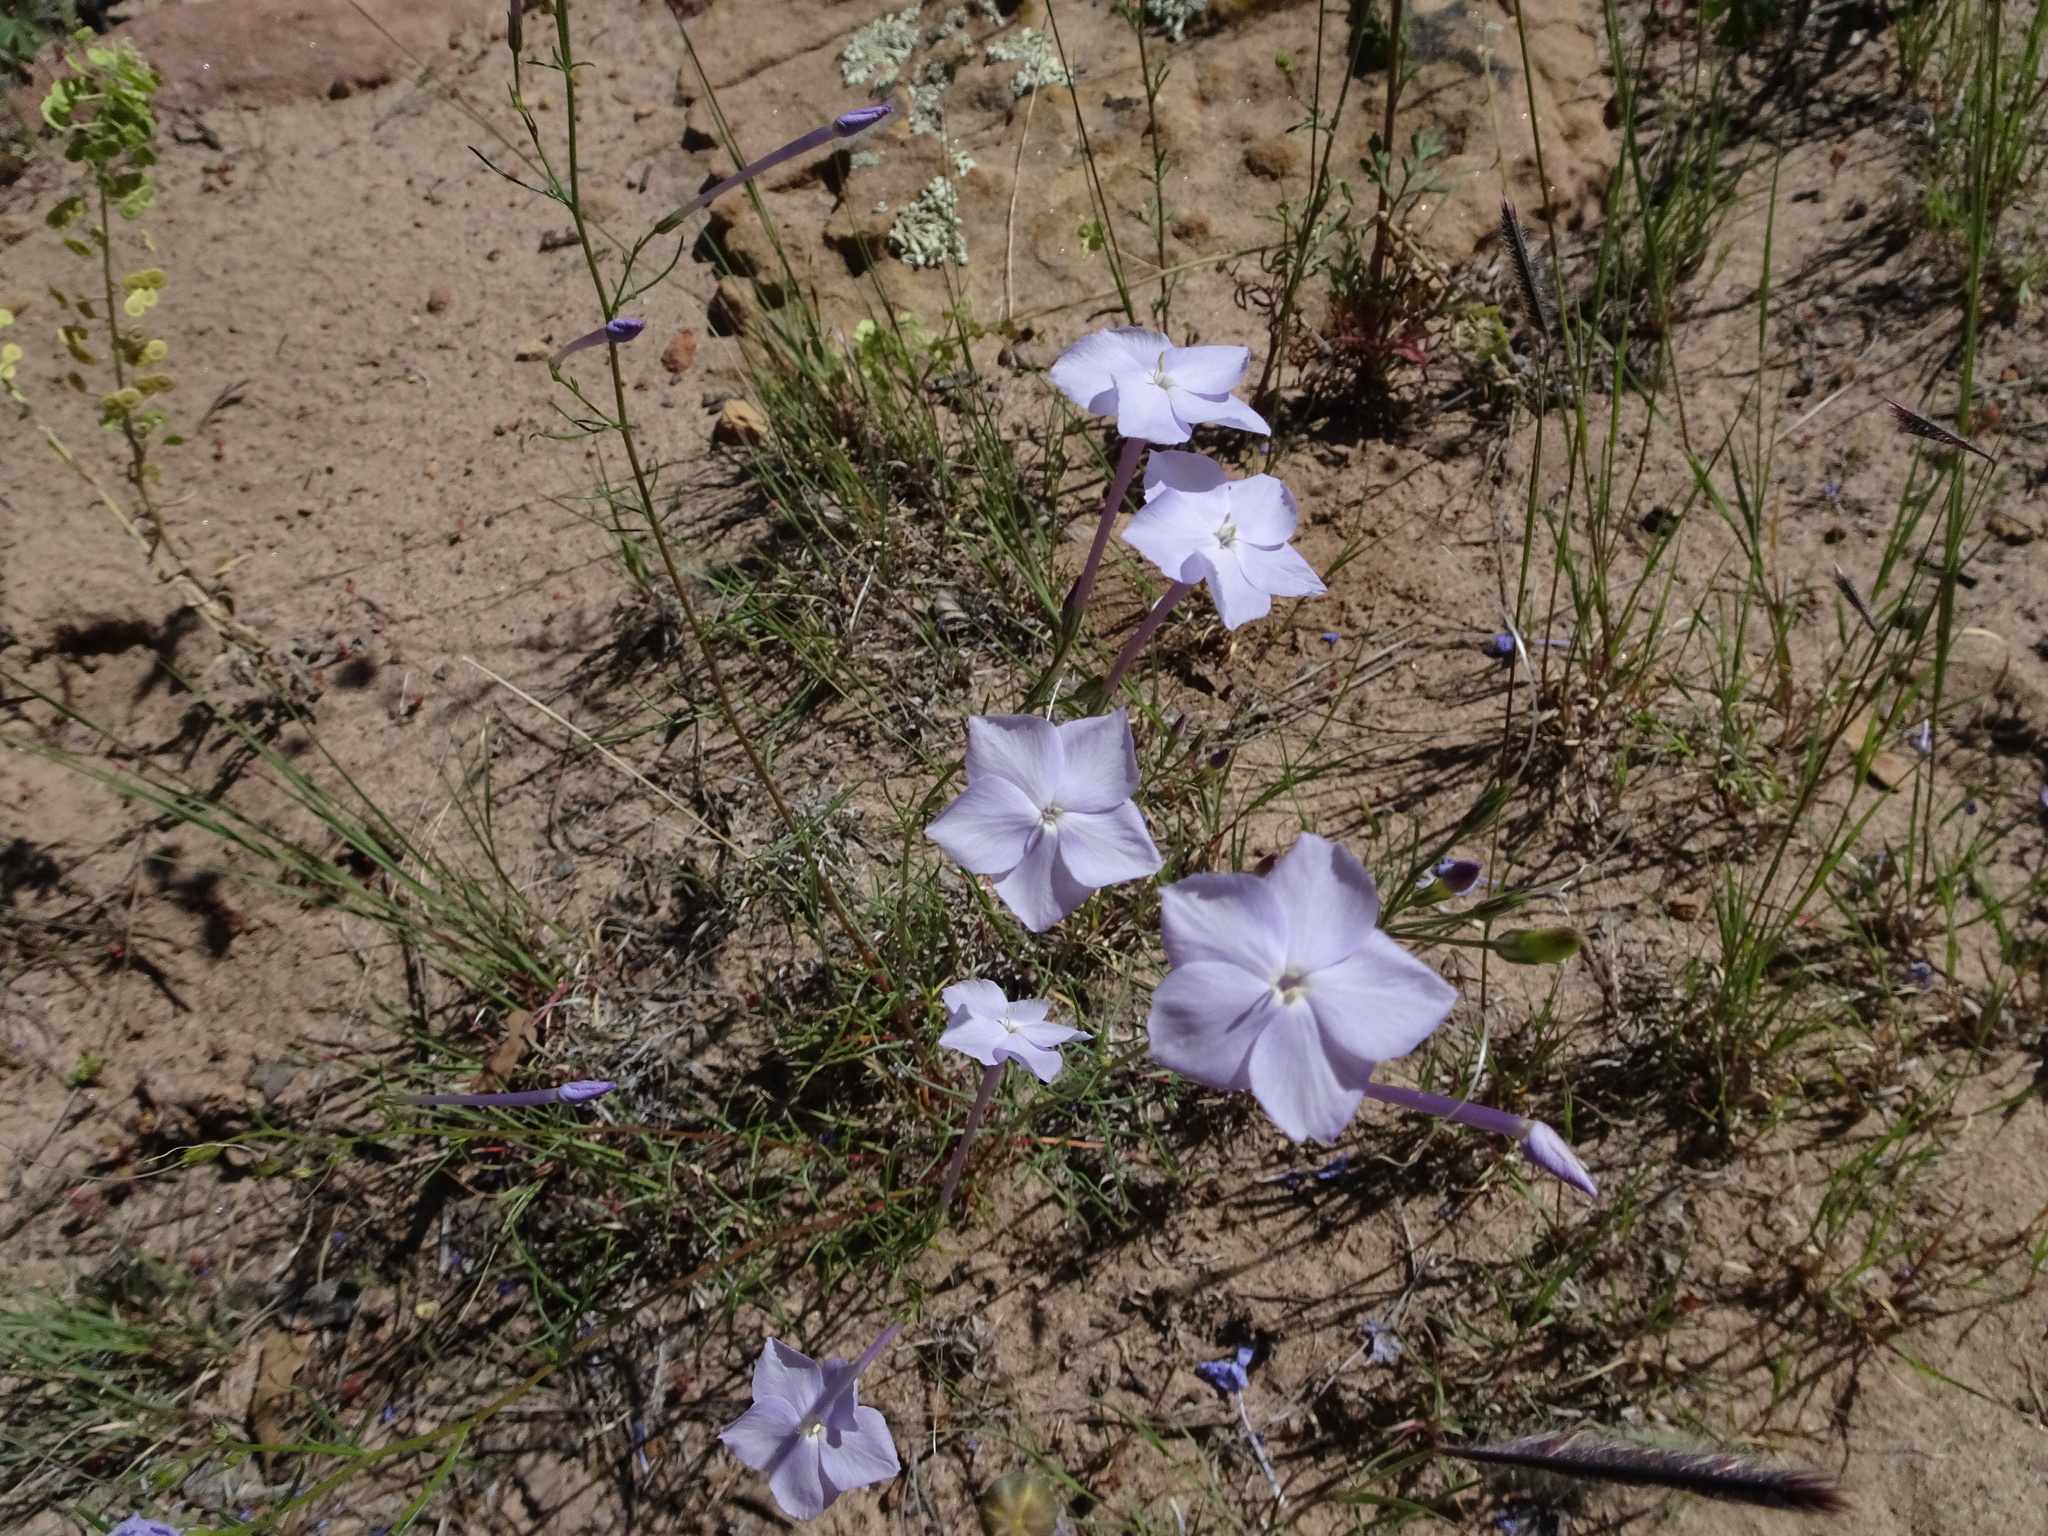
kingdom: Plantae
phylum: Tracheophyta
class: Magnoliopsida
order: Ericales
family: Polemoniaceae
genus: Ipomopsis
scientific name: Ipomopsis longiflora
